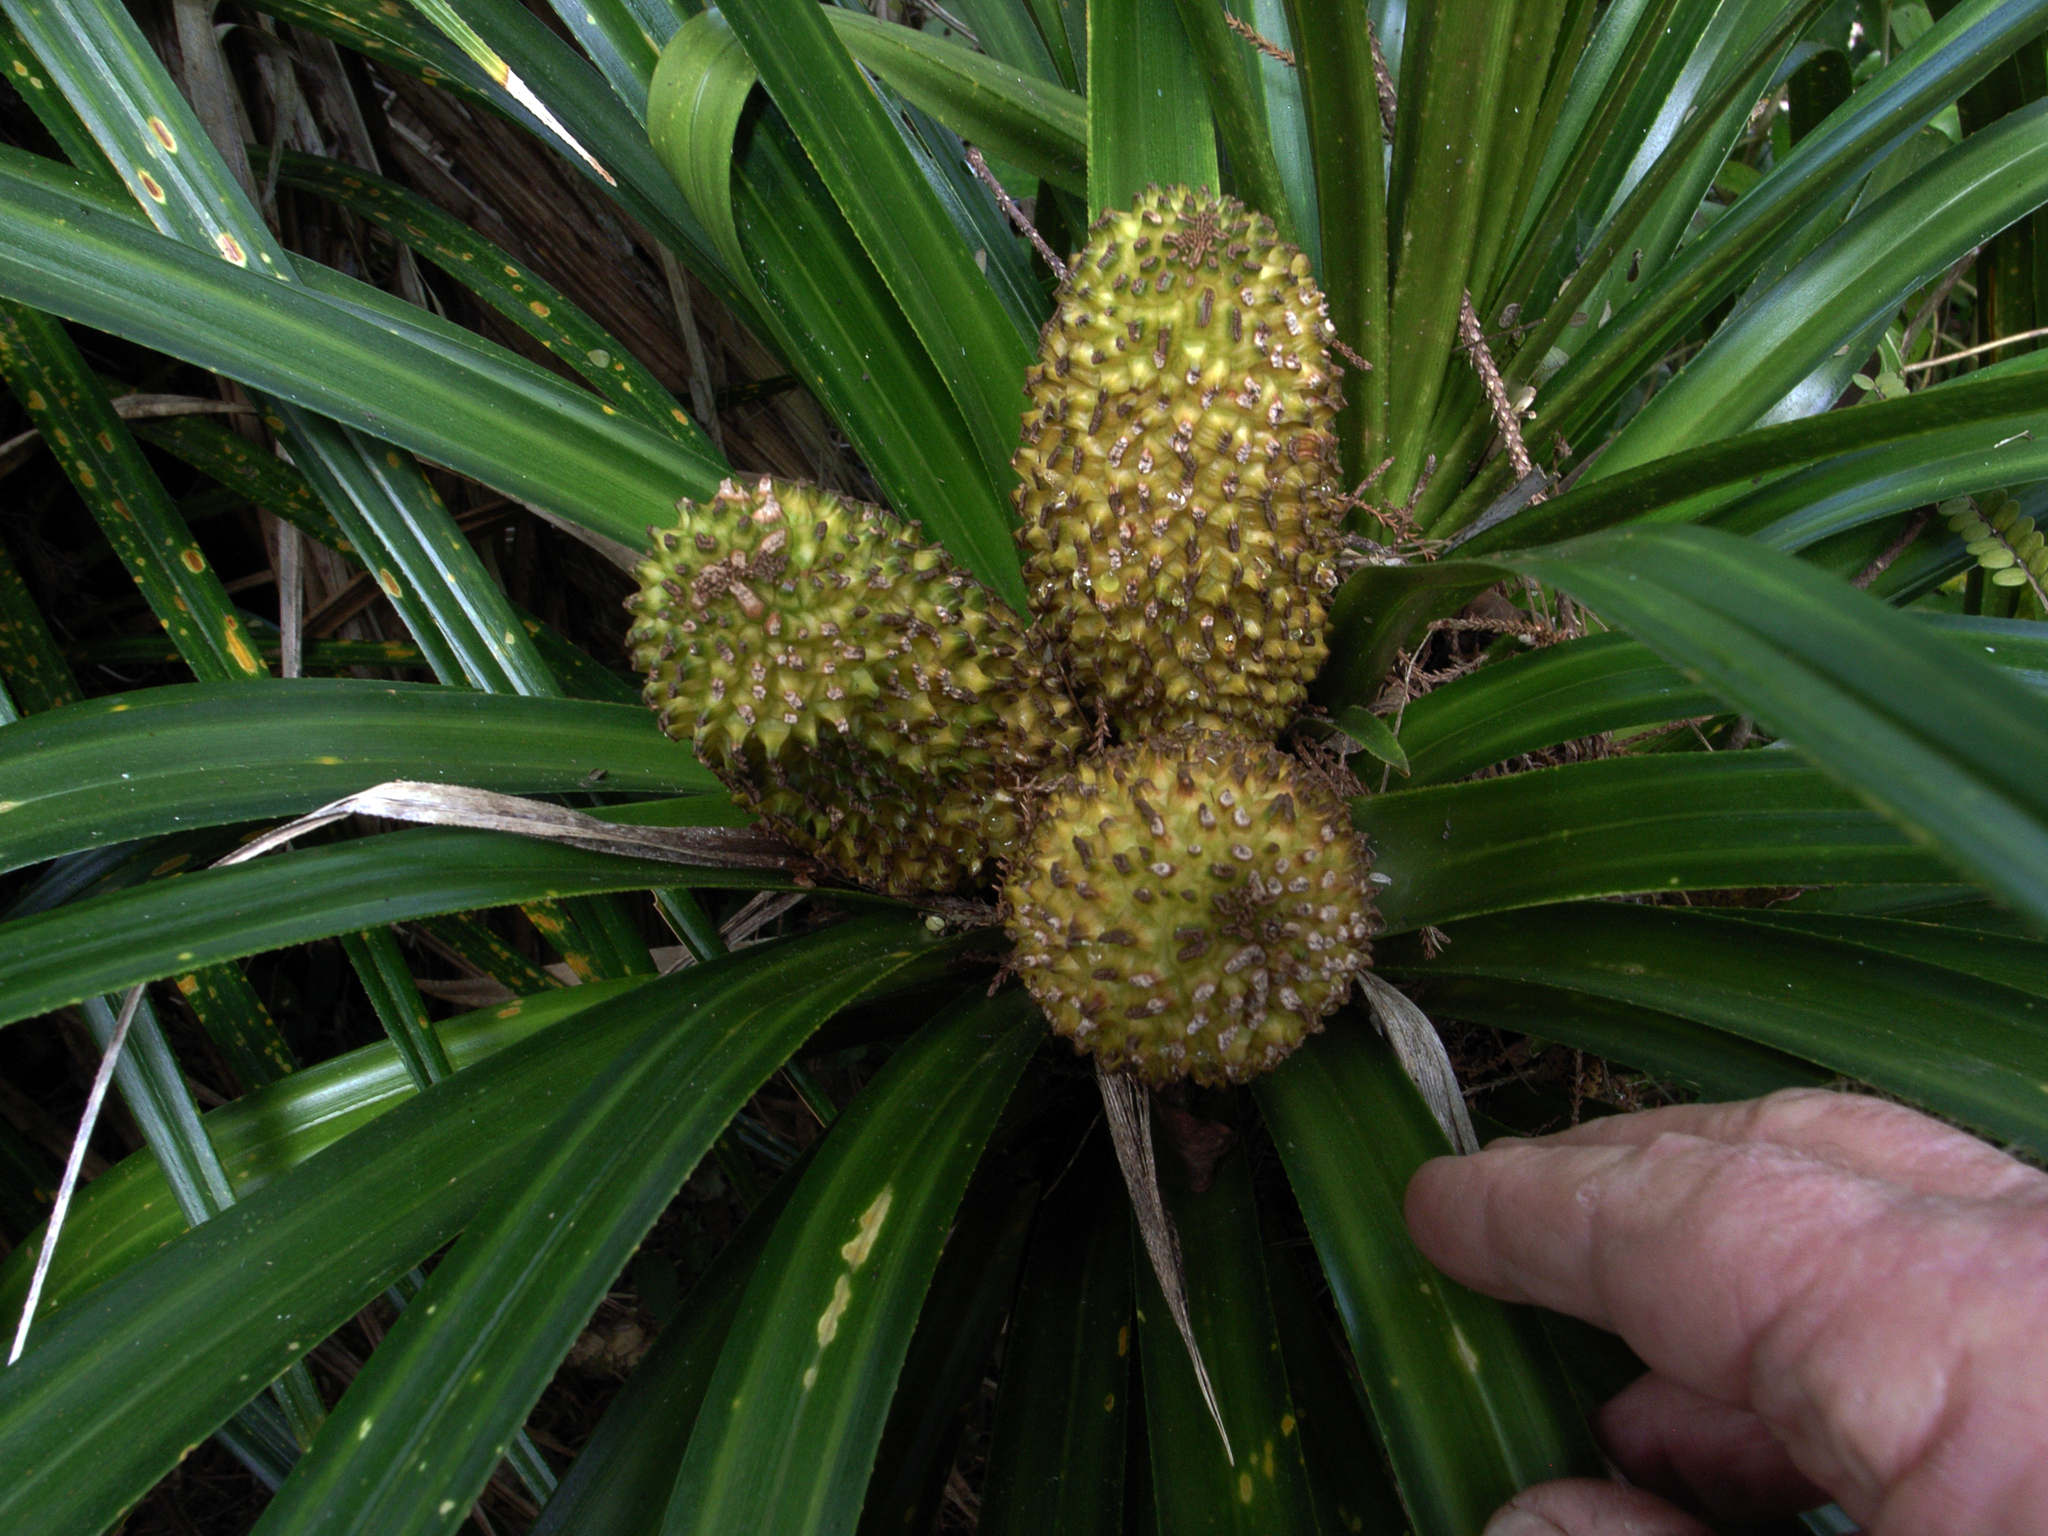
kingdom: Plantae
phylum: Tracheophyta
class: Liliopsida
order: Pandanales
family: Pandanaceae
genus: Freycinetia
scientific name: Freycinetia banksii
